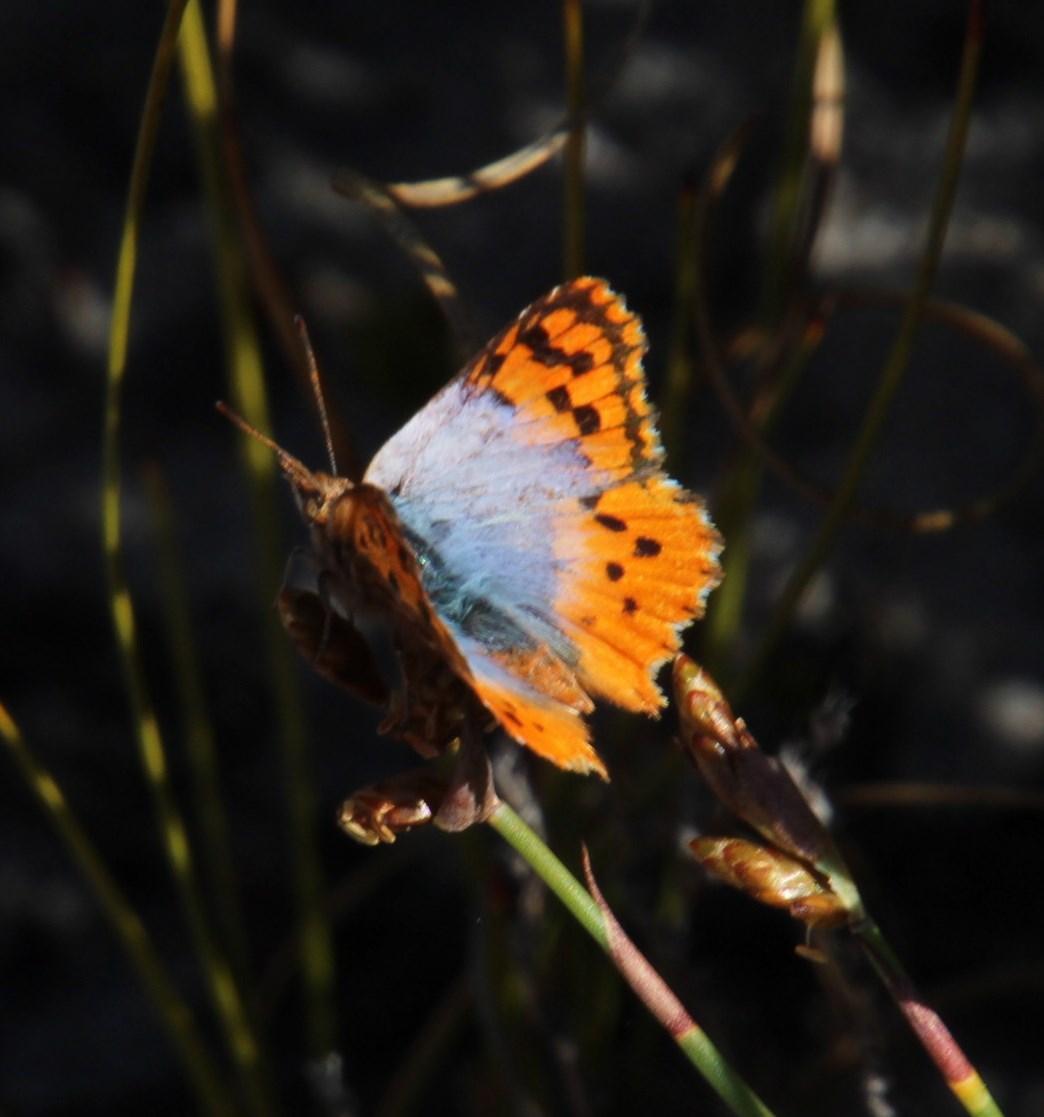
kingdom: Animalia
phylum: Arthropoda
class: Insecta
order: Lepidoptera
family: Lycaenidae
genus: Chrysoritis
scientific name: Chrysoritis thysbe
